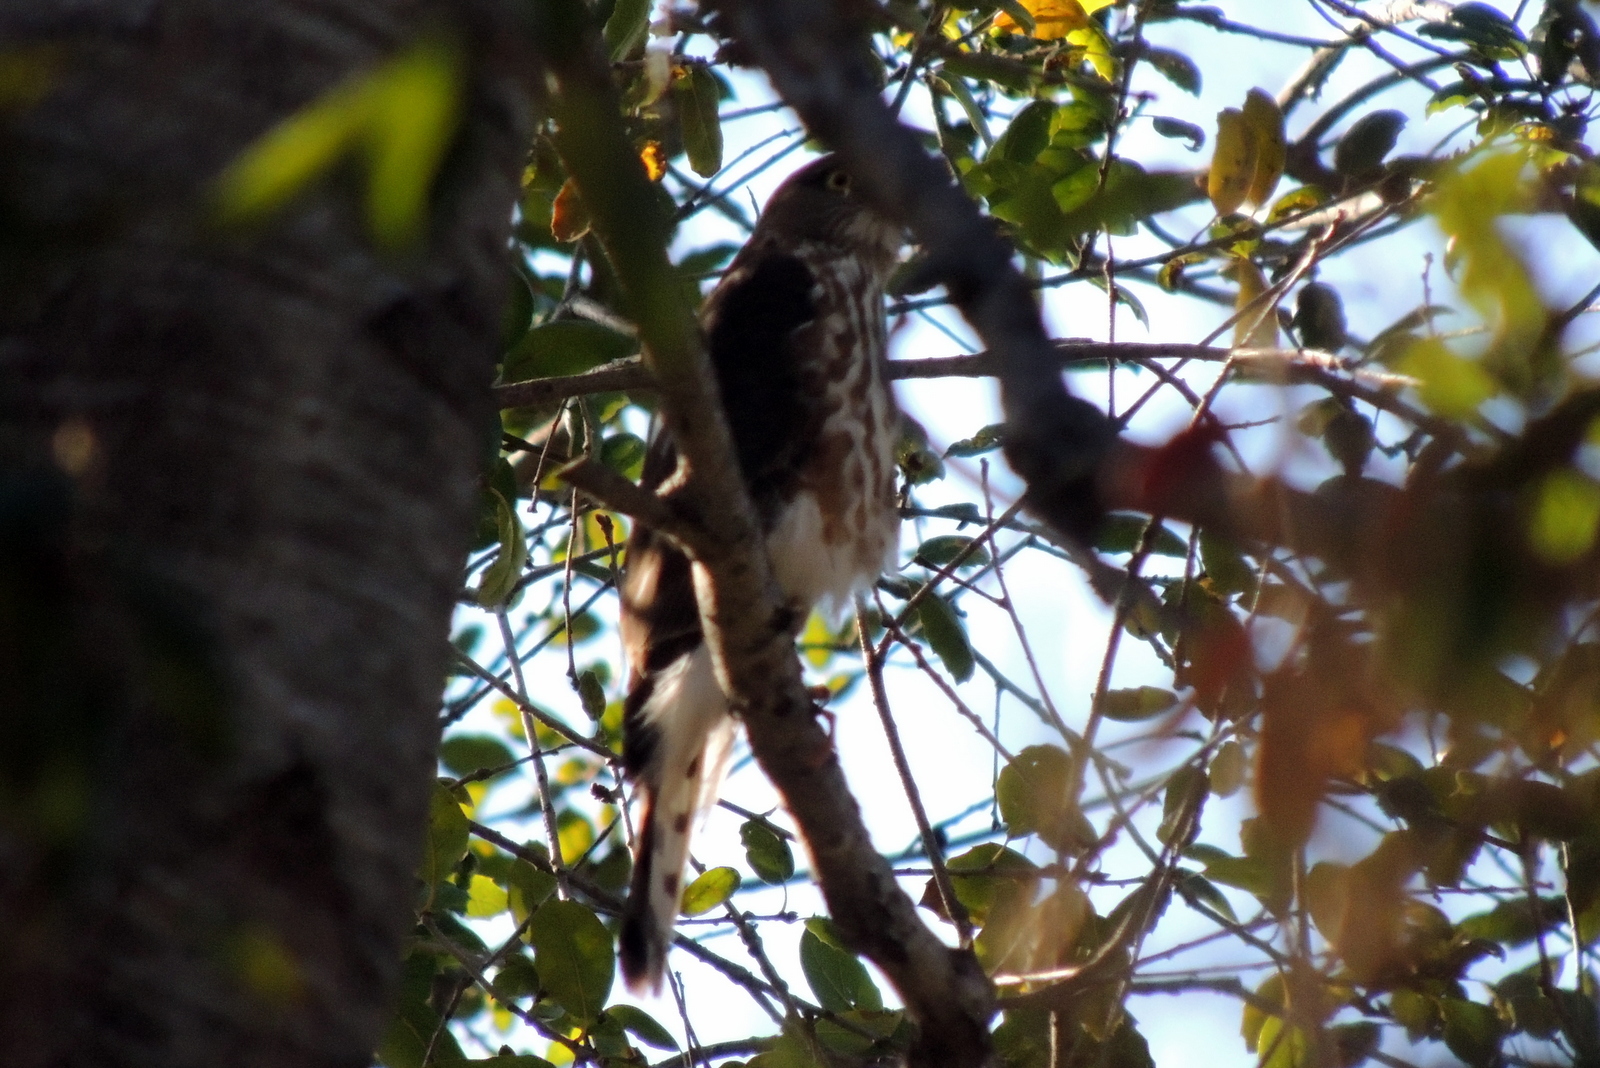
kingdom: Animalia
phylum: Chordata
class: Aves
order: Accipitriformes
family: Accipitridae
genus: Accipiter
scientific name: Accipiter cooperii
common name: Cooper's hawk
